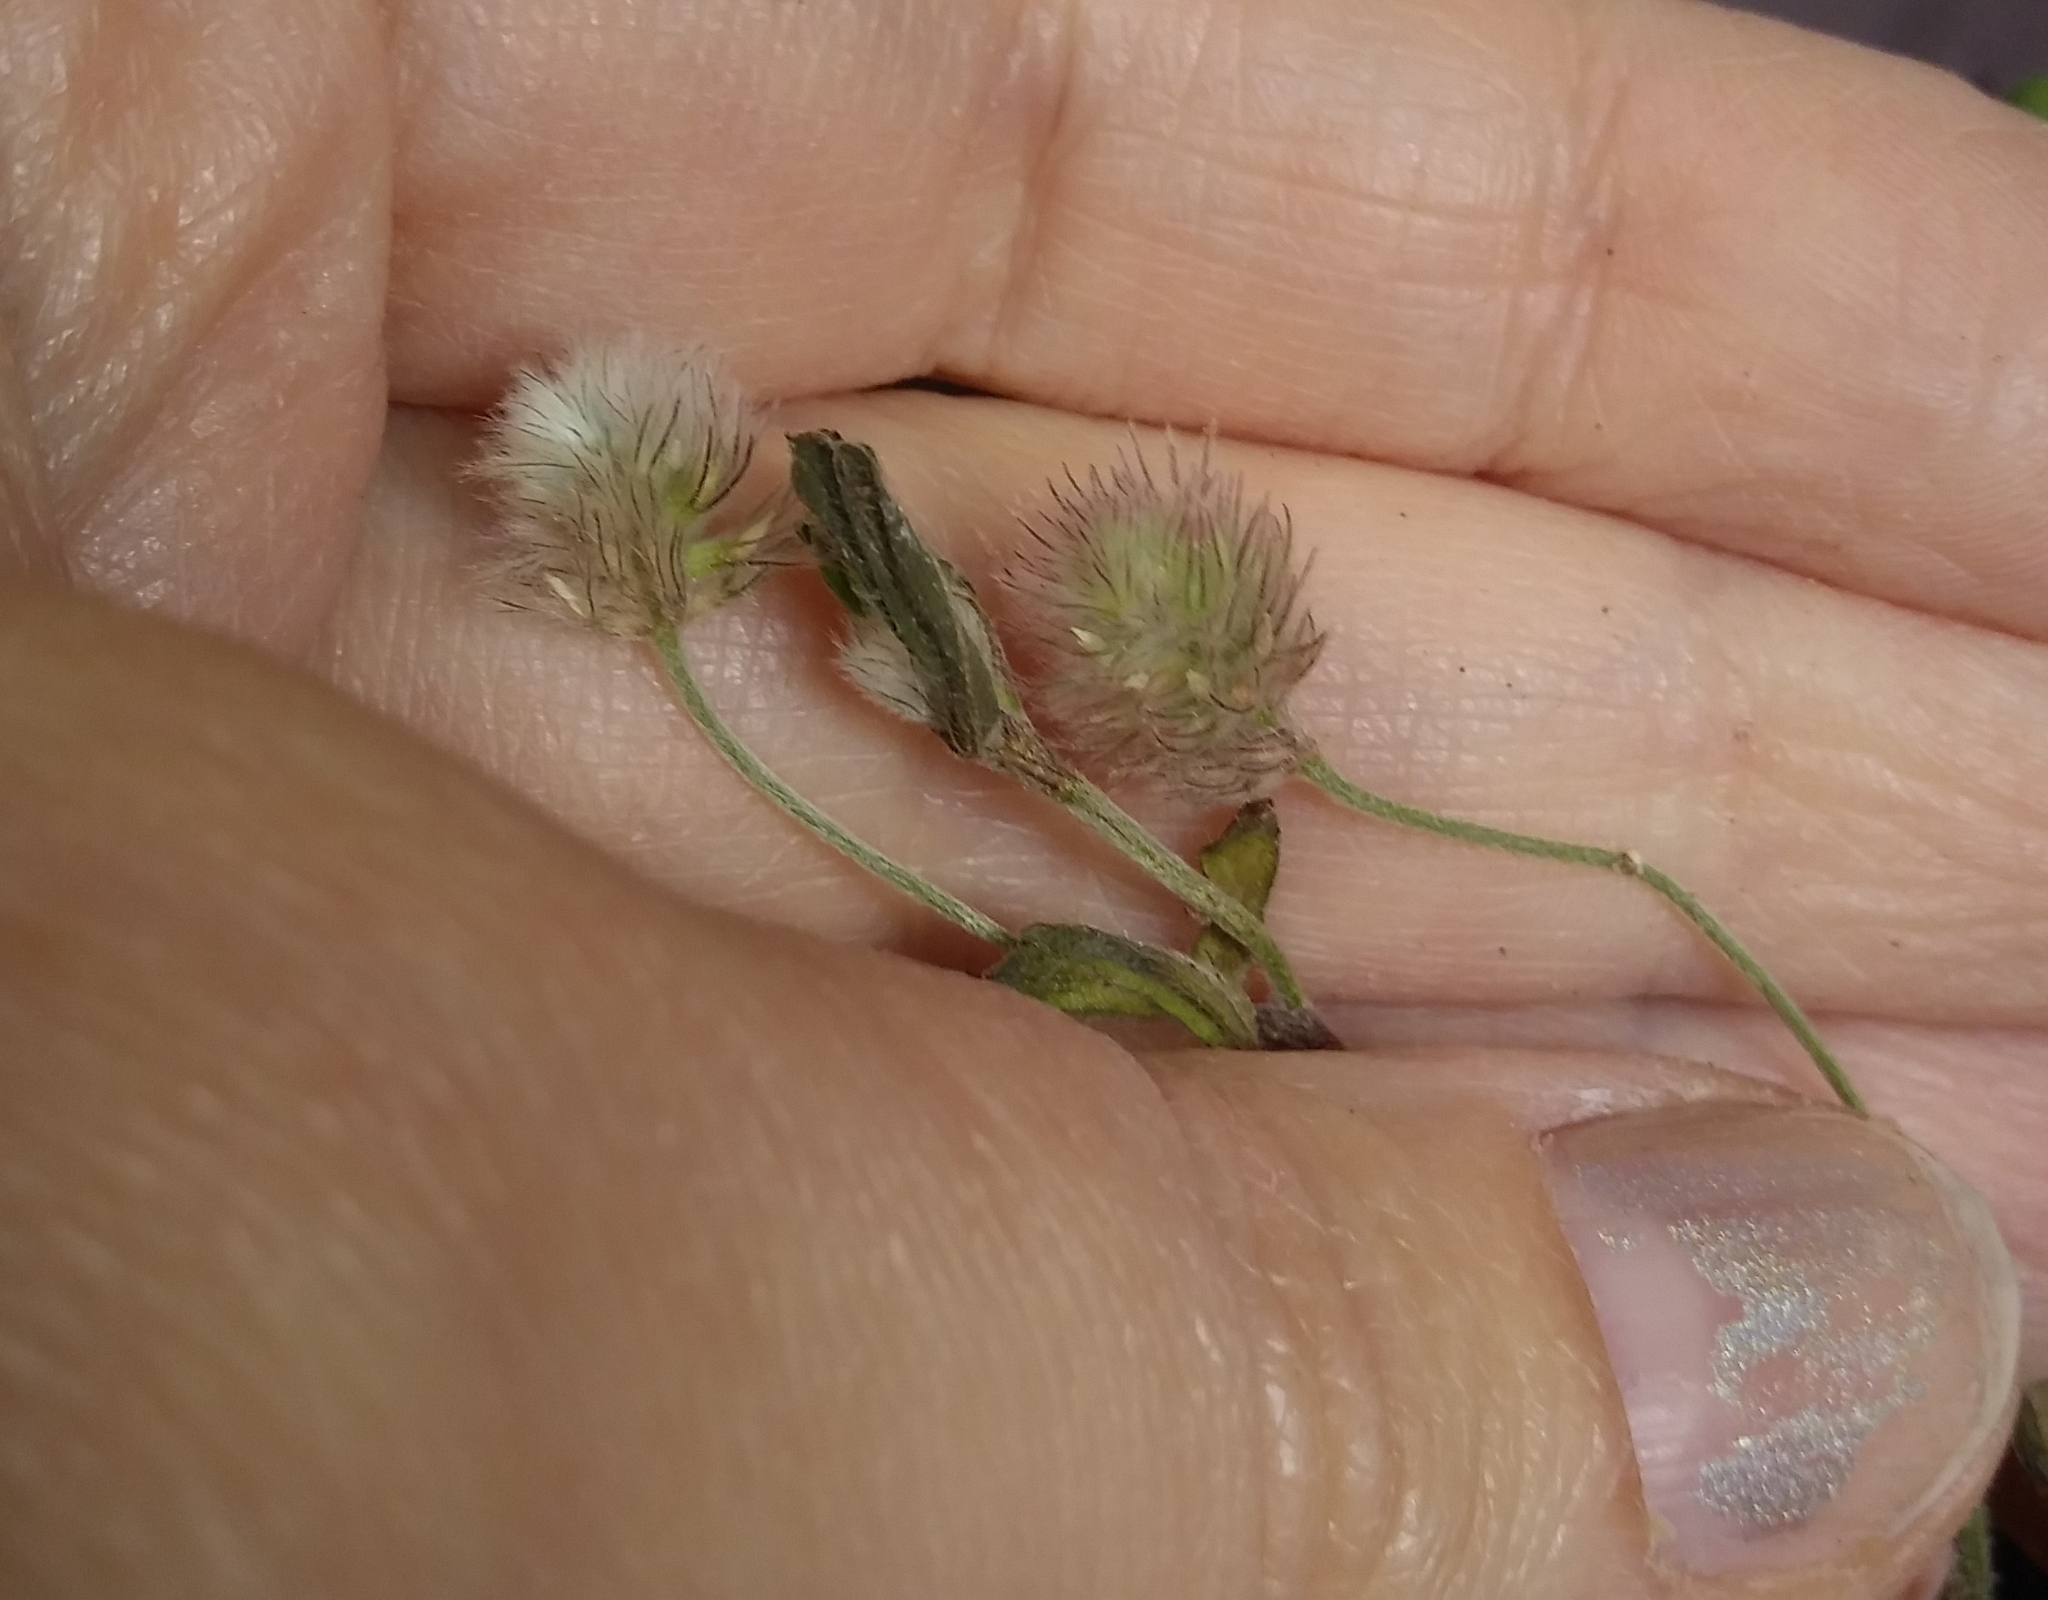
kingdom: Plantae
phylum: Tracheophyta
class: Magnoliopsida
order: Fabales
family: Fabaceae
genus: Trifolium
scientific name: Trifolium arvense
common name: Hare's-foot clover
